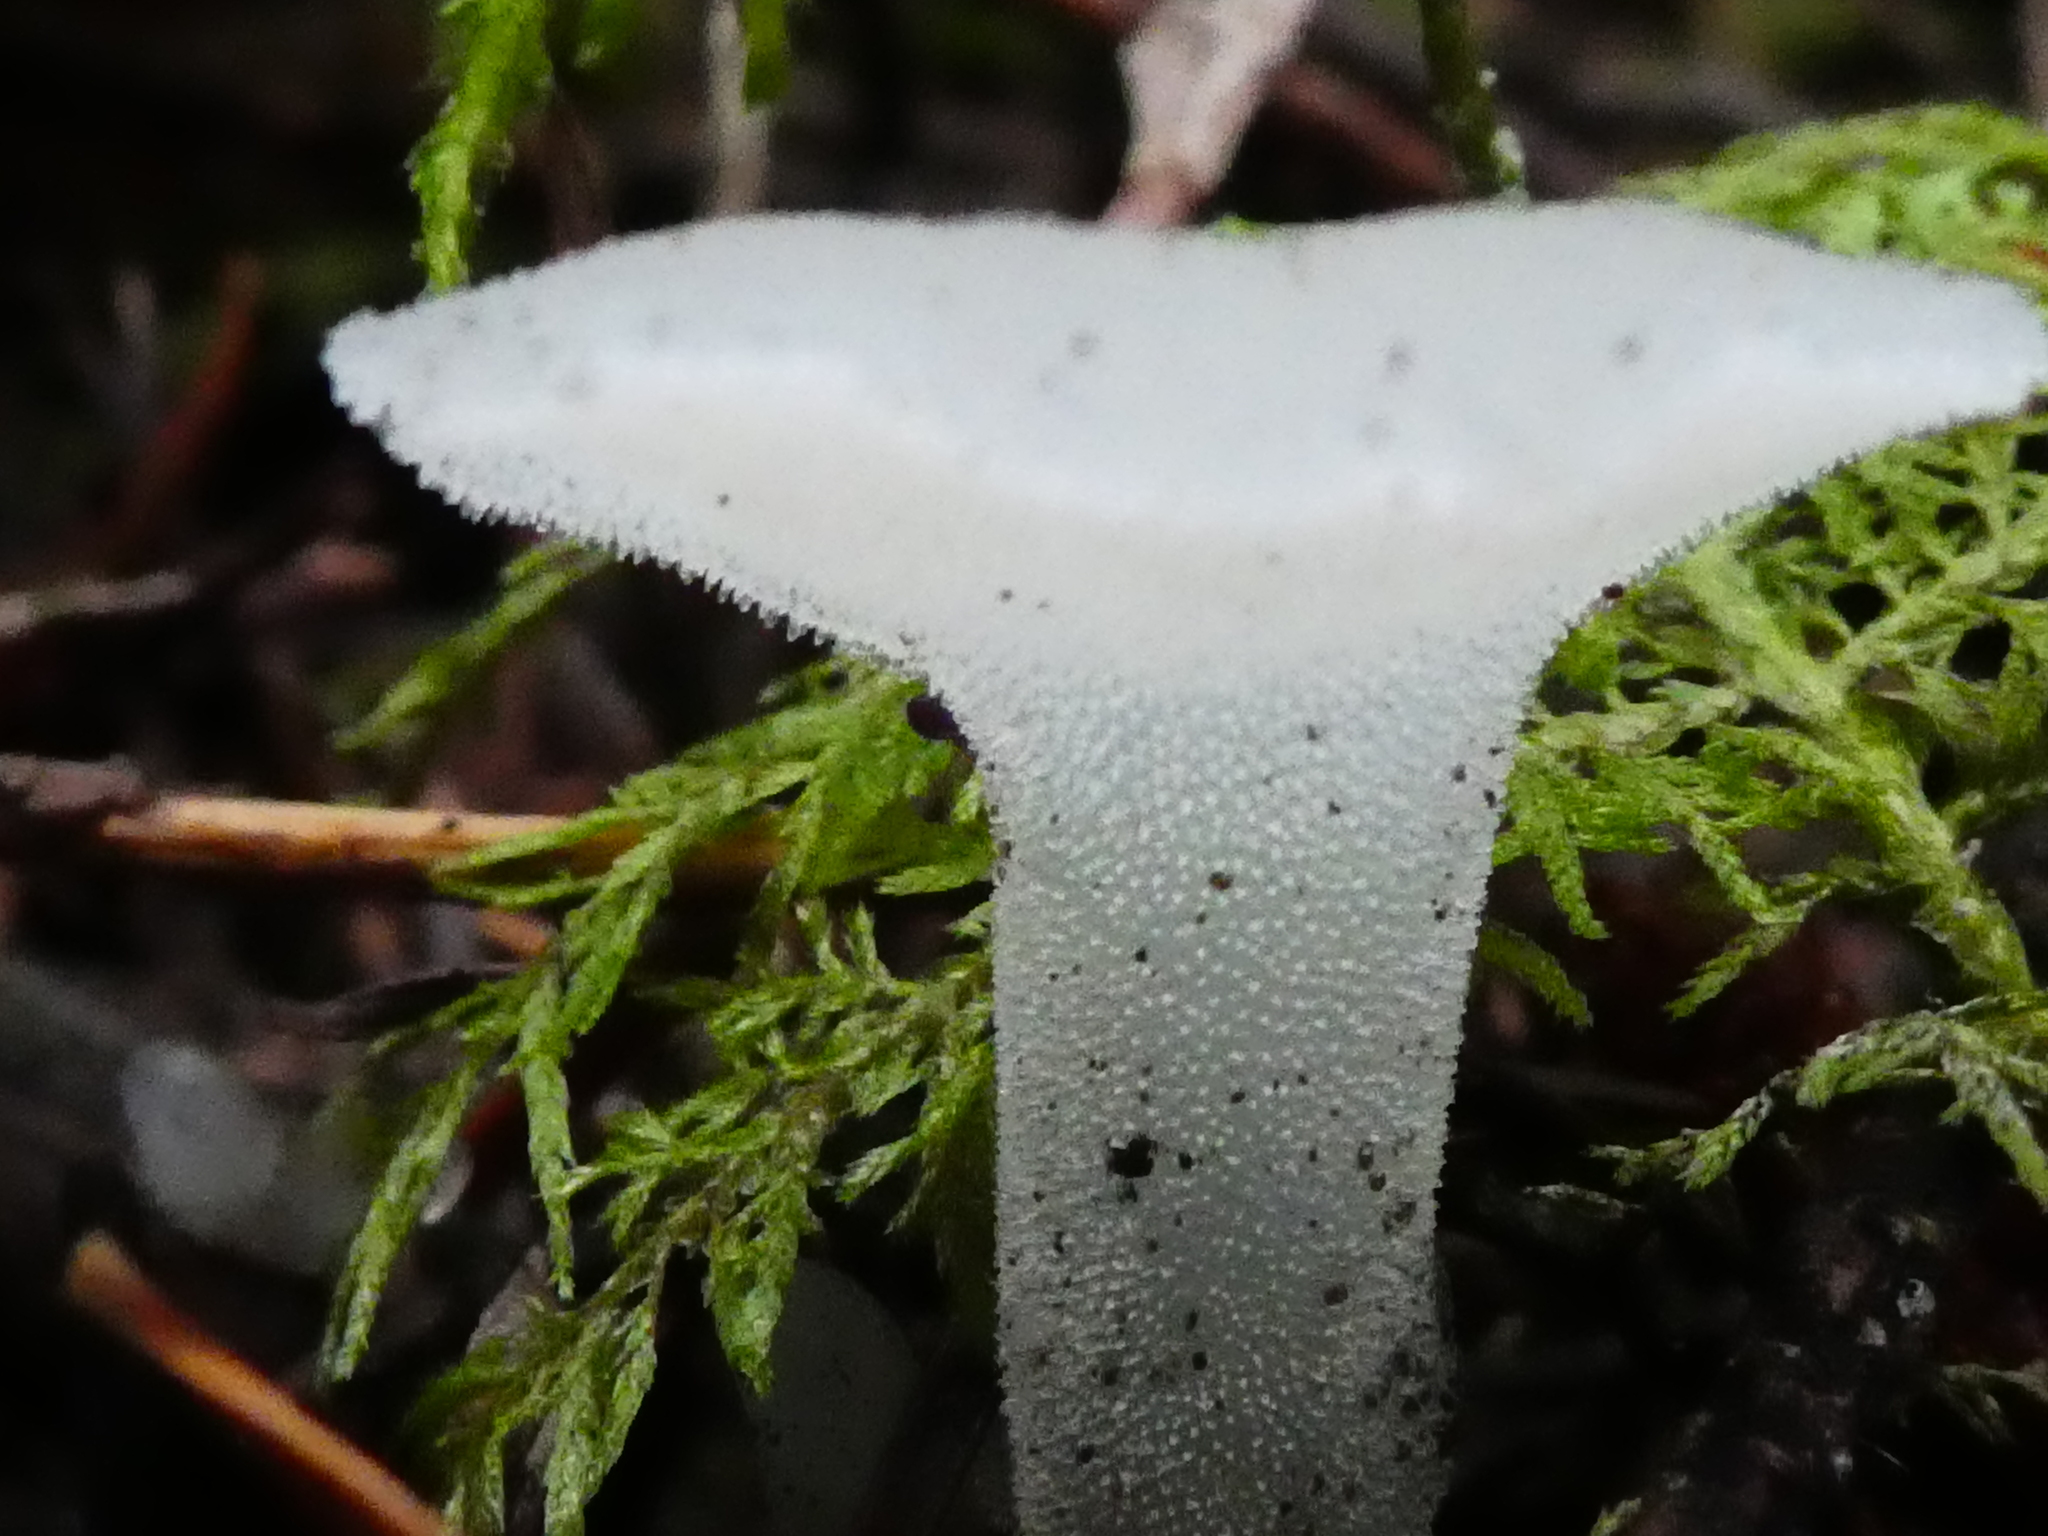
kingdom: Fungi
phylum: Basidiomycota
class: Agaricomycetes
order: Auriculariales
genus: Pseudohydnum
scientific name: Pseudohydnum gelatinosum
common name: Jelly tongue
